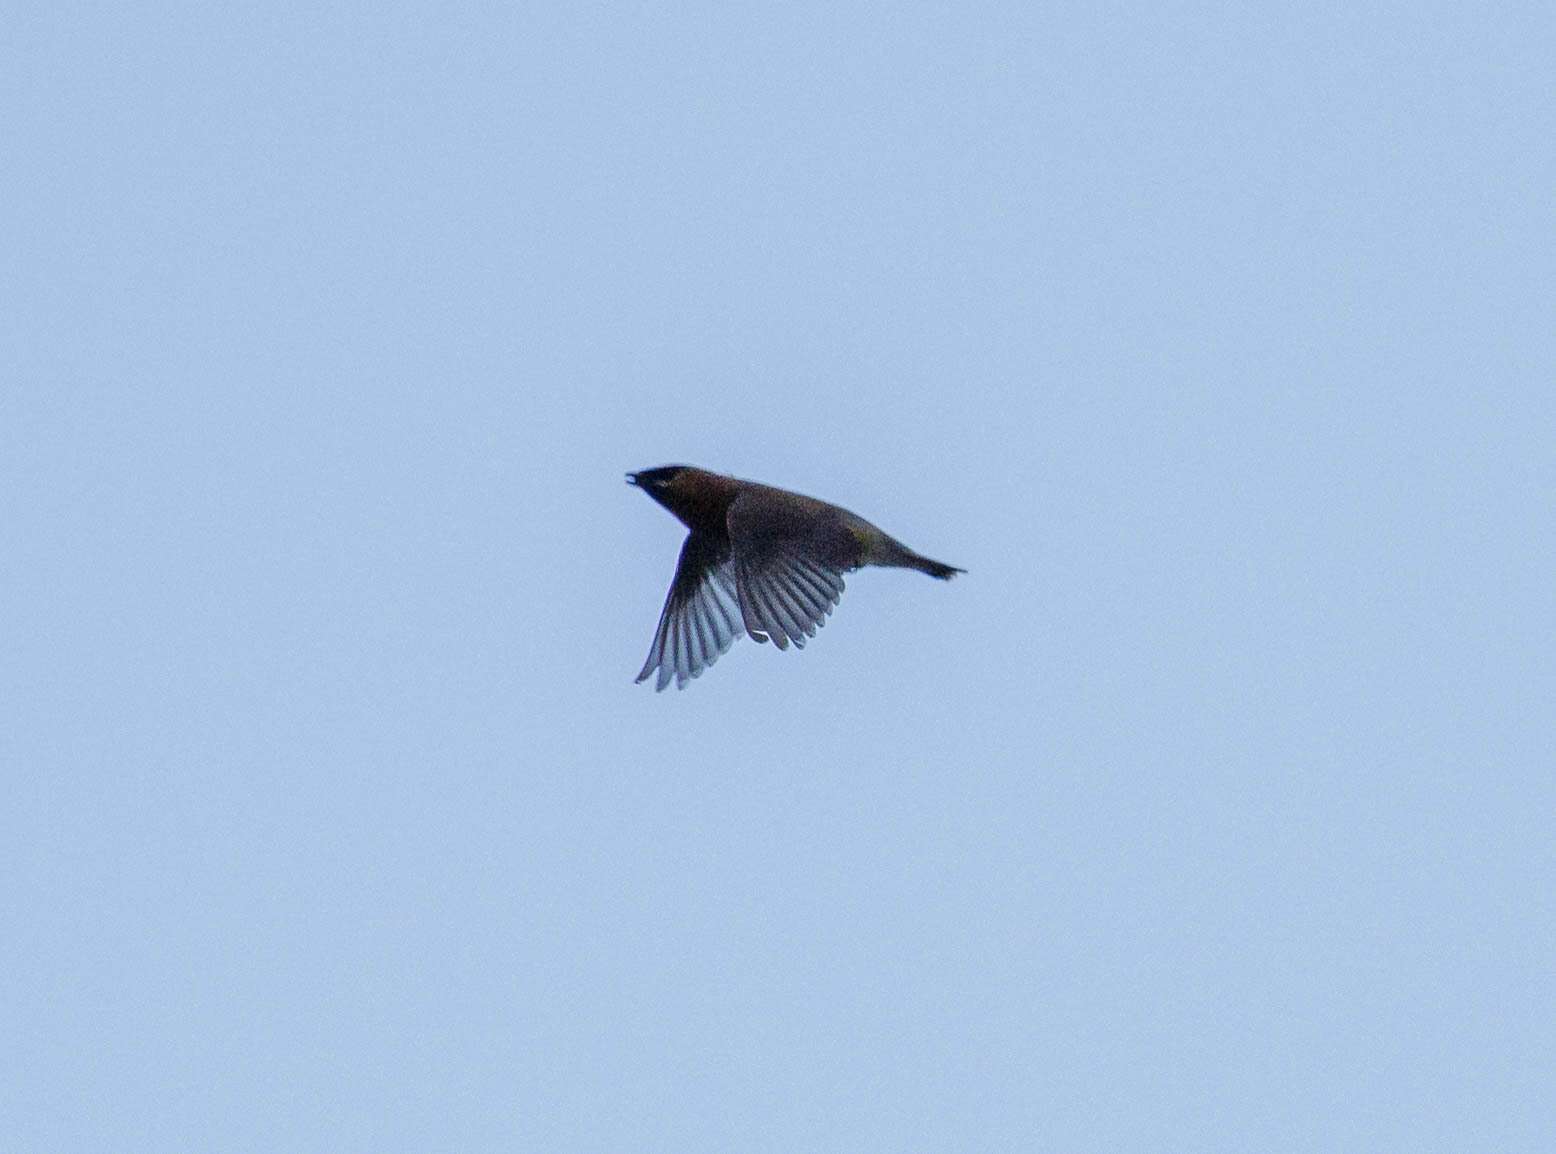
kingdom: Animalia
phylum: Chordata
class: Aves
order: Passeriformes
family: Bombycillidae
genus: Bombycilla
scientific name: Bombycilla cedrorum
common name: Cedar waxwing
